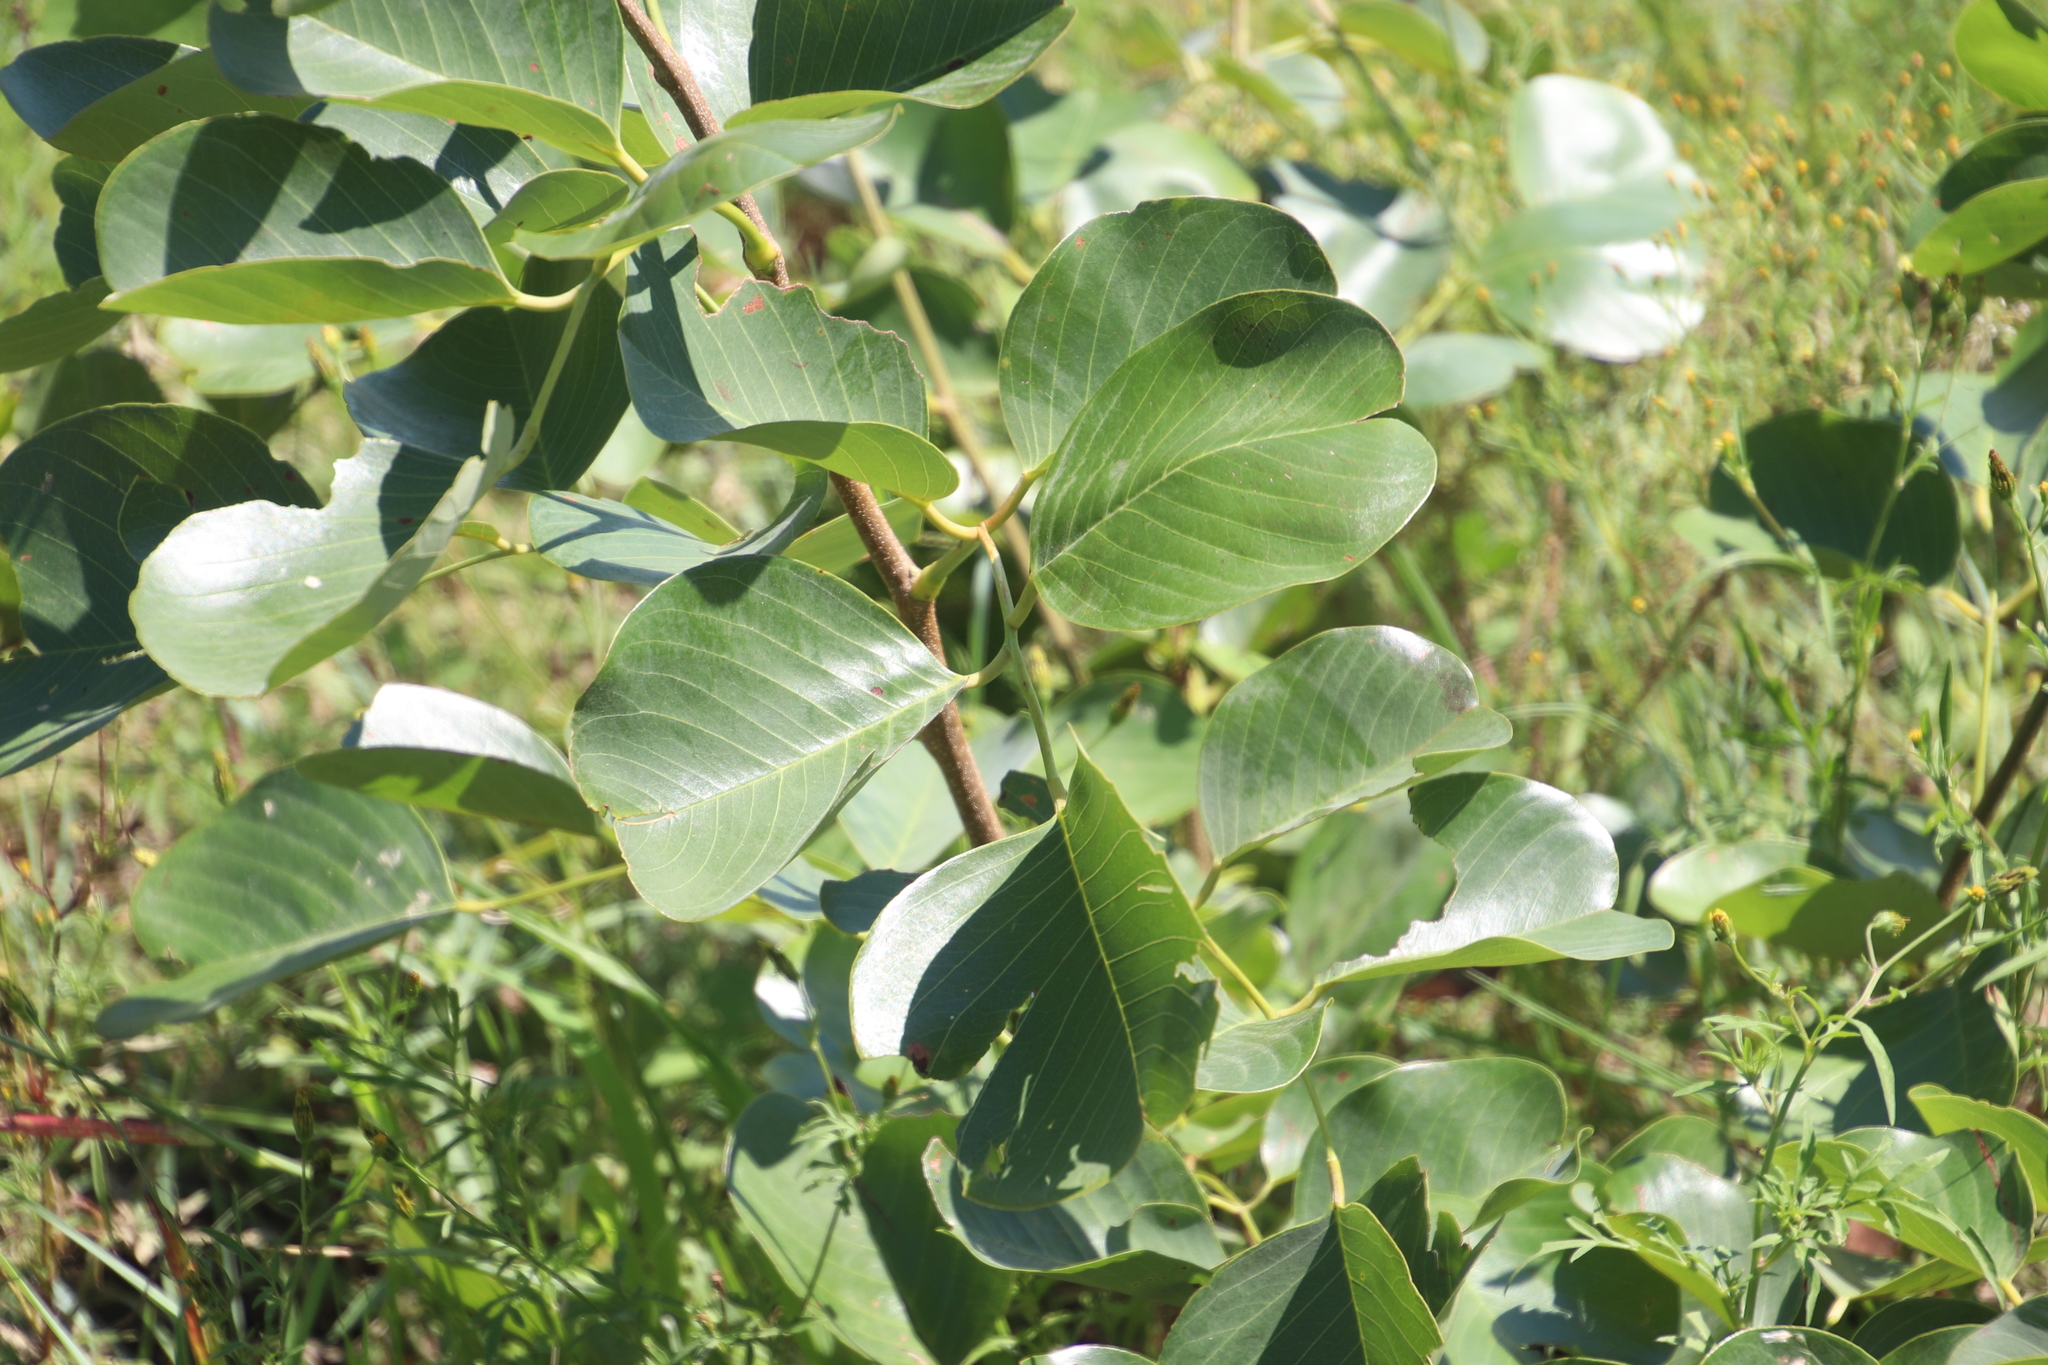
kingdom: Plantae
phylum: Tracheophyta
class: Magnoliopsida
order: Fabales
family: Fabaceae
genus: Pterocarpus
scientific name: Pterocarpus rotundifolius
